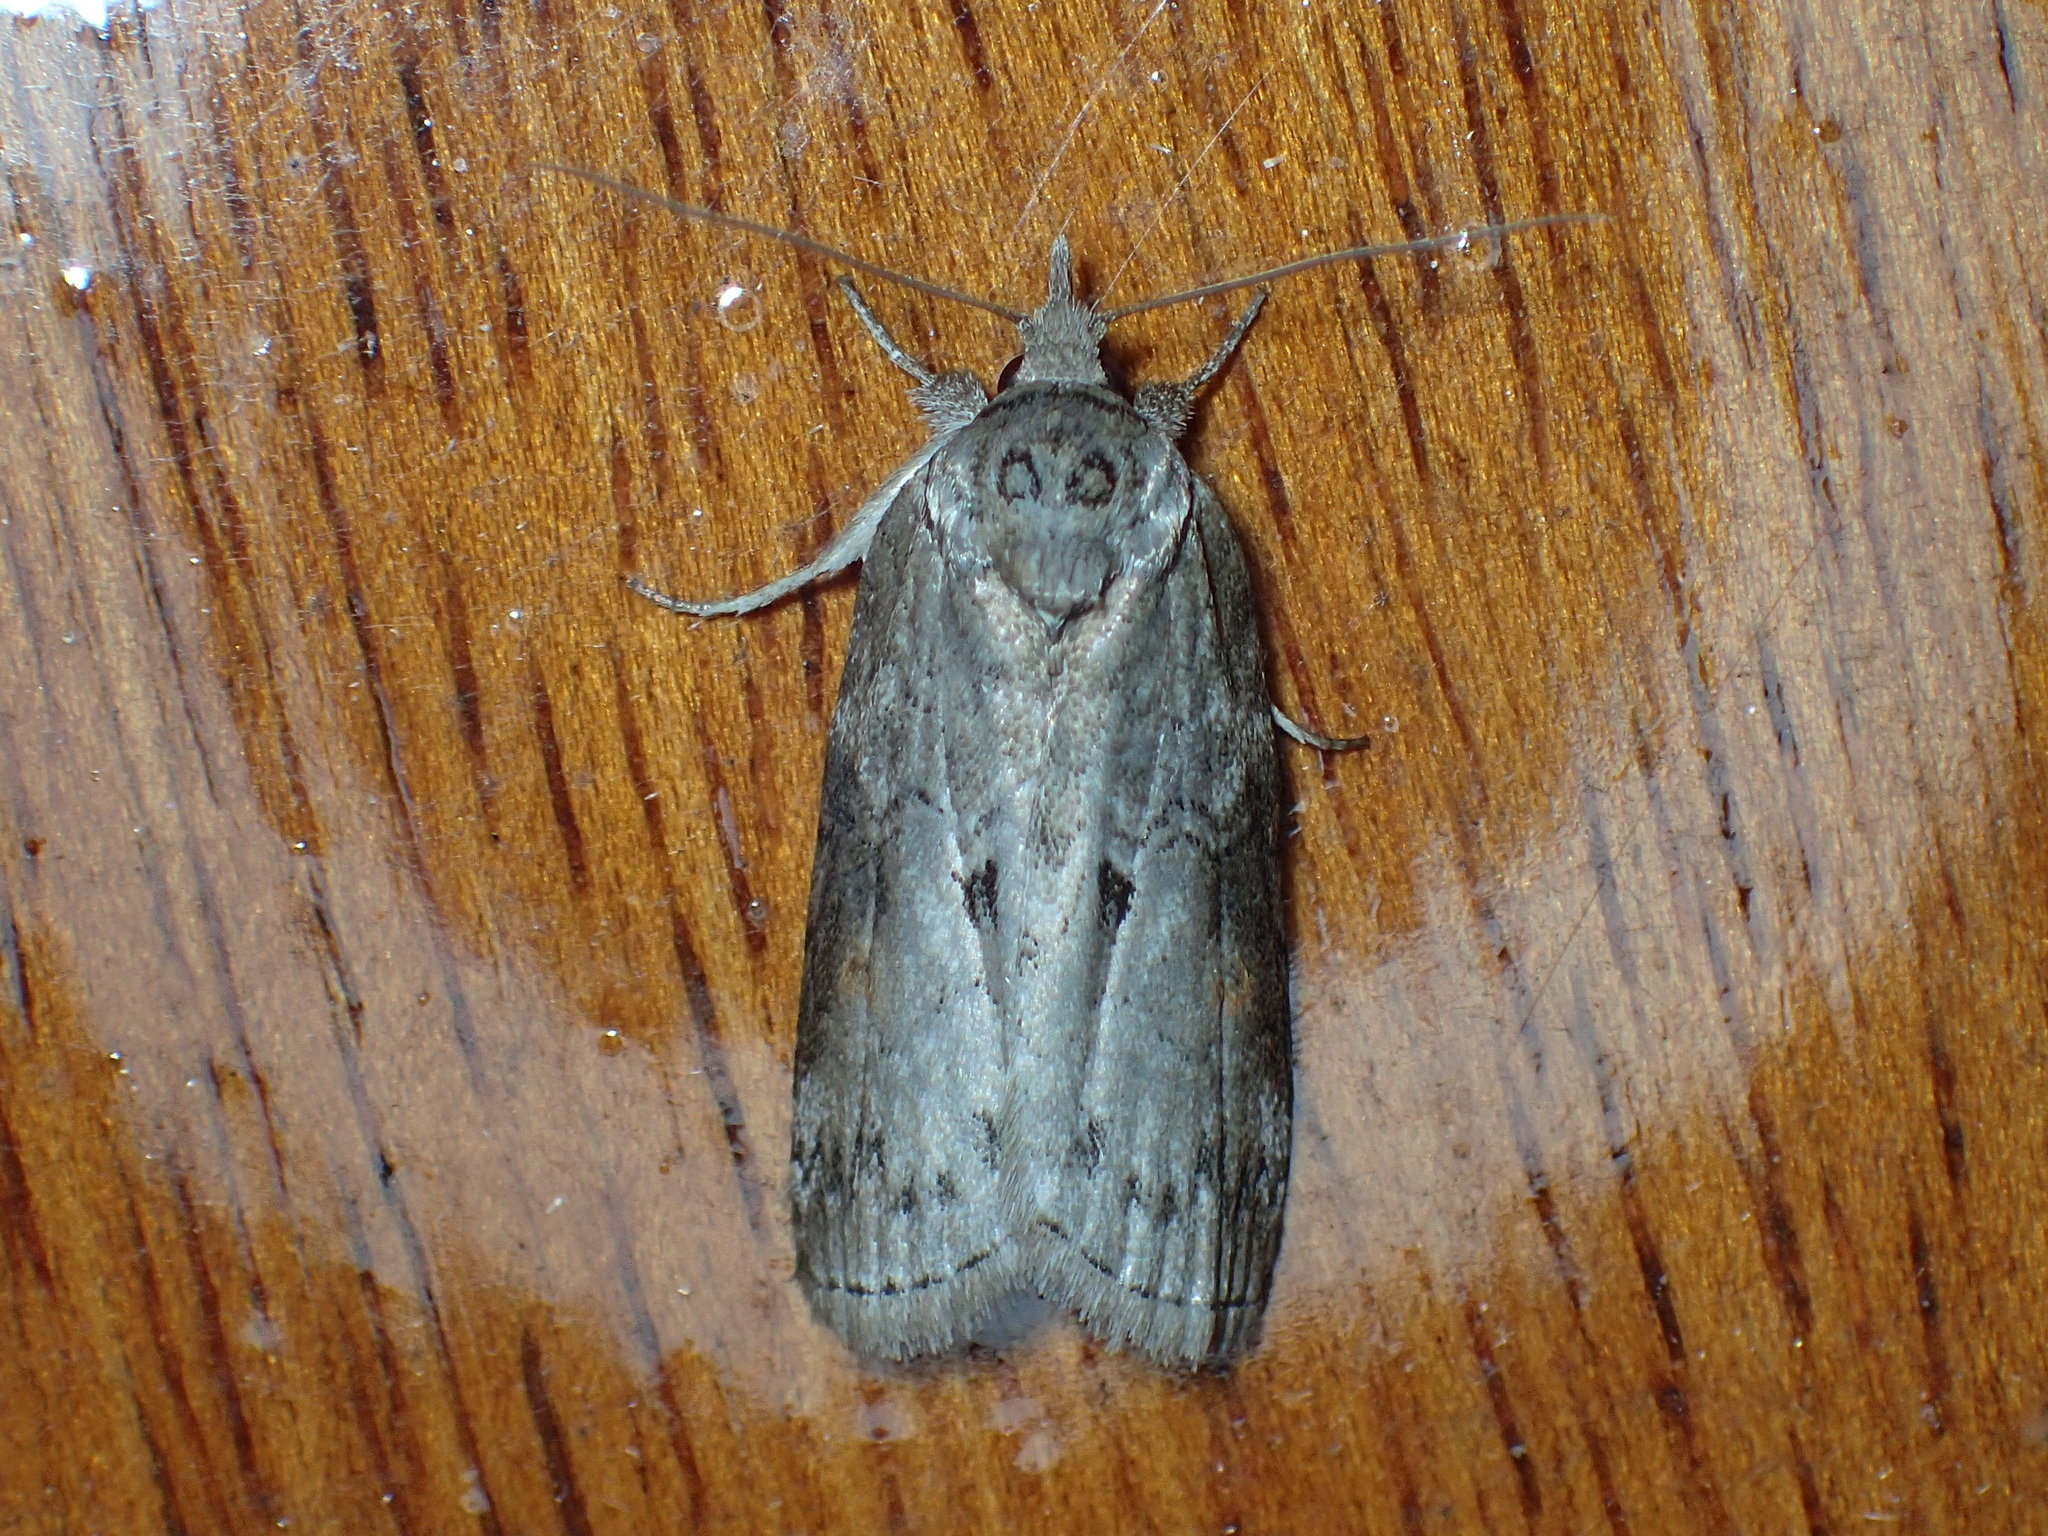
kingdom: Animalia
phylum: Arthropoda
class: Insecta
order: Lepidoptera
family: Nolidae
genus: Nycteola
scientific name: Nycteola metaspilella
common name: Forgotten frigid owlet
